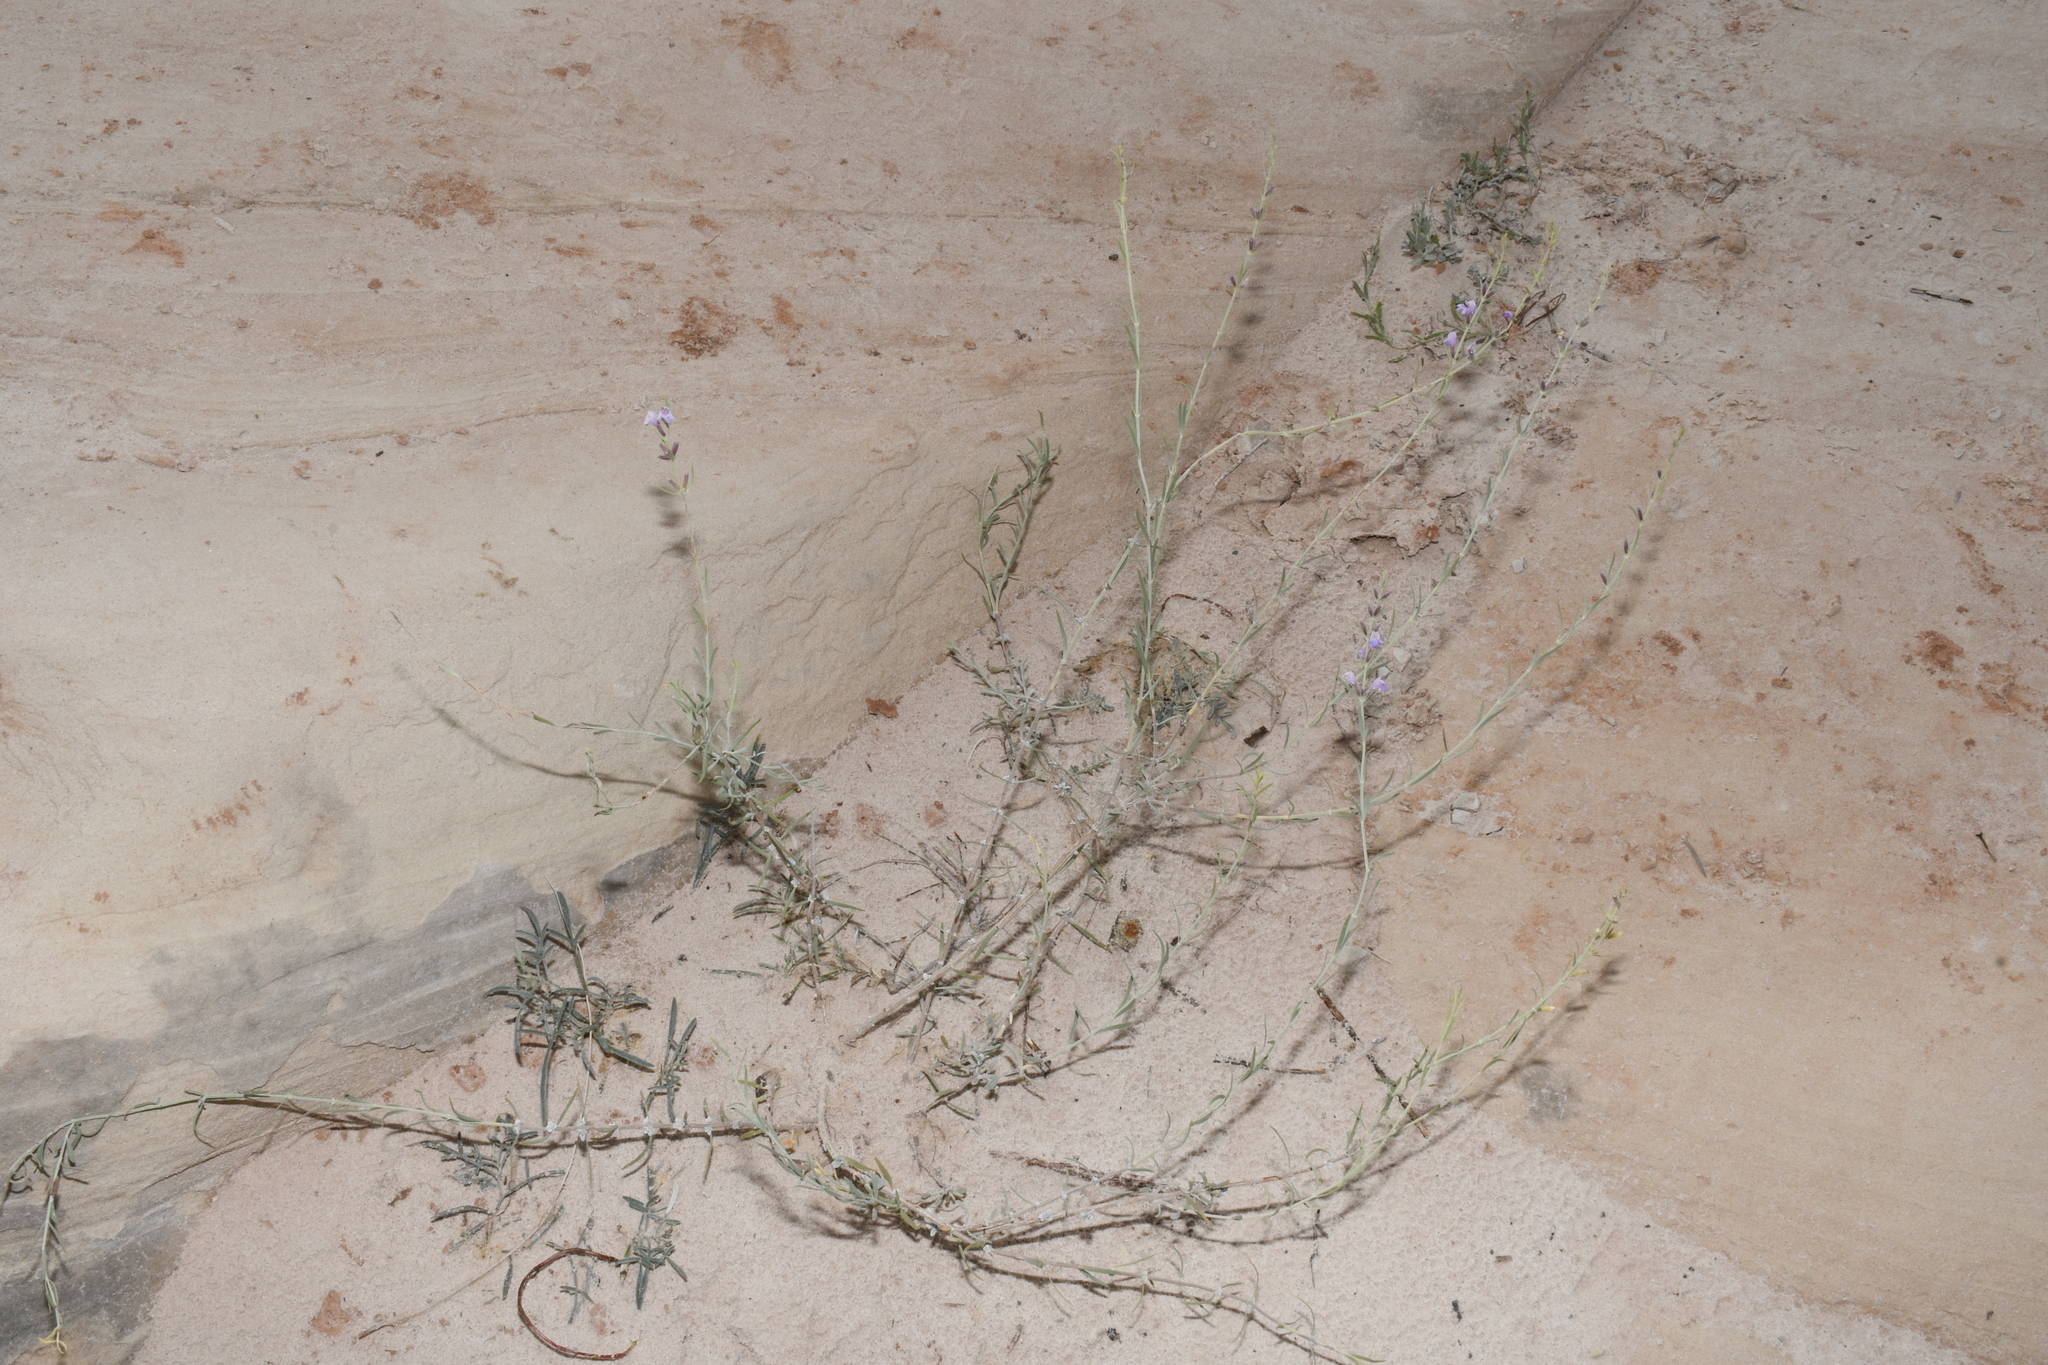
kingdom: Plantae
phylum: Tracheophyta
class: Magnoliopsida
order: Lamiales
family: Lamiaceae
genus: Poliomintha
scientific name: Poliomintha incana
